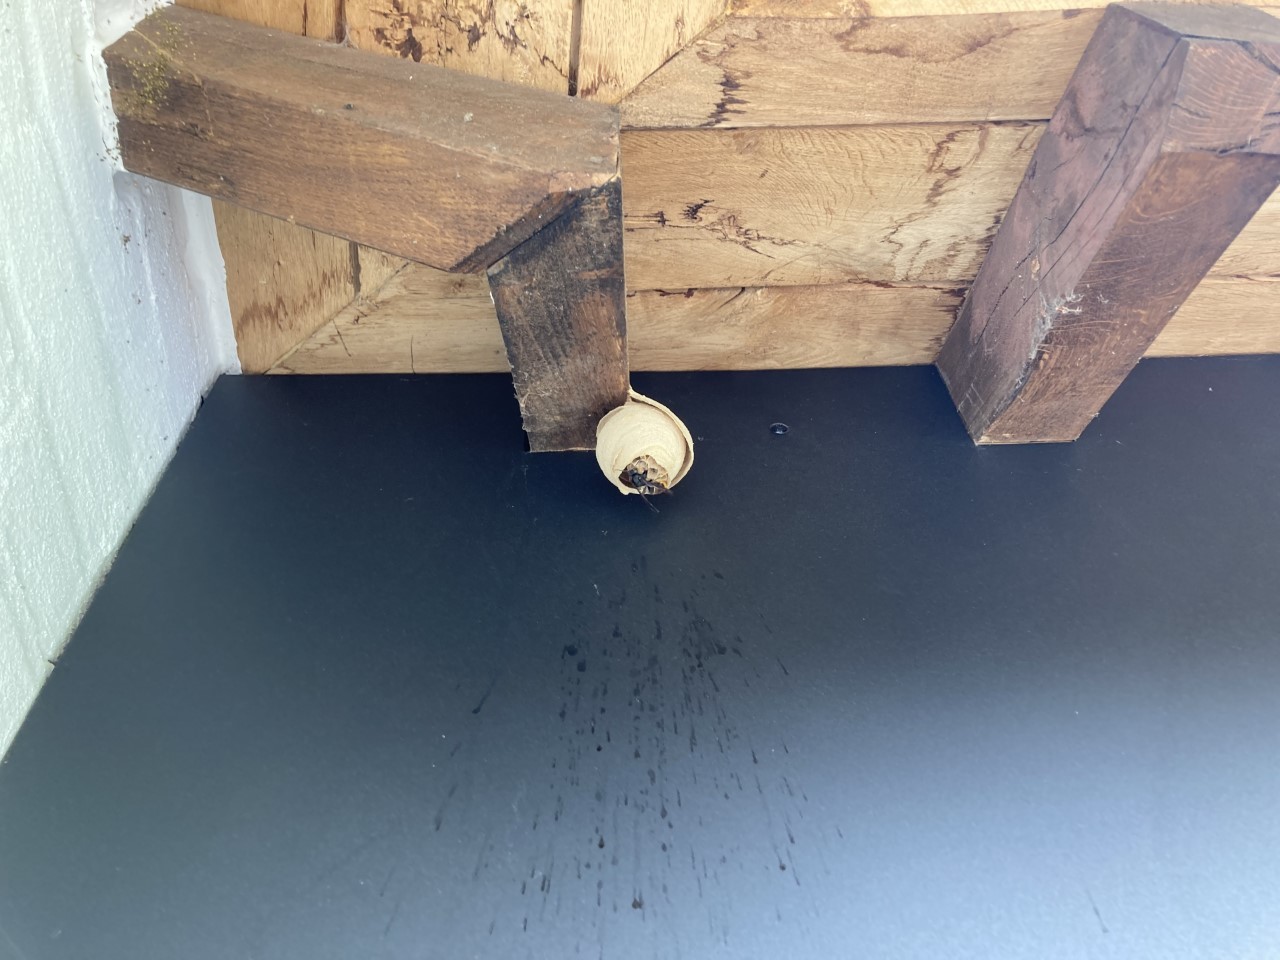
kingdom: Animalia
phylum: Arthropoda
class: Insecta
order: Hymenoptera
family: Vespidae
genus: Vespa
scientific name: Vespa velutina
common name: Asian hornet
